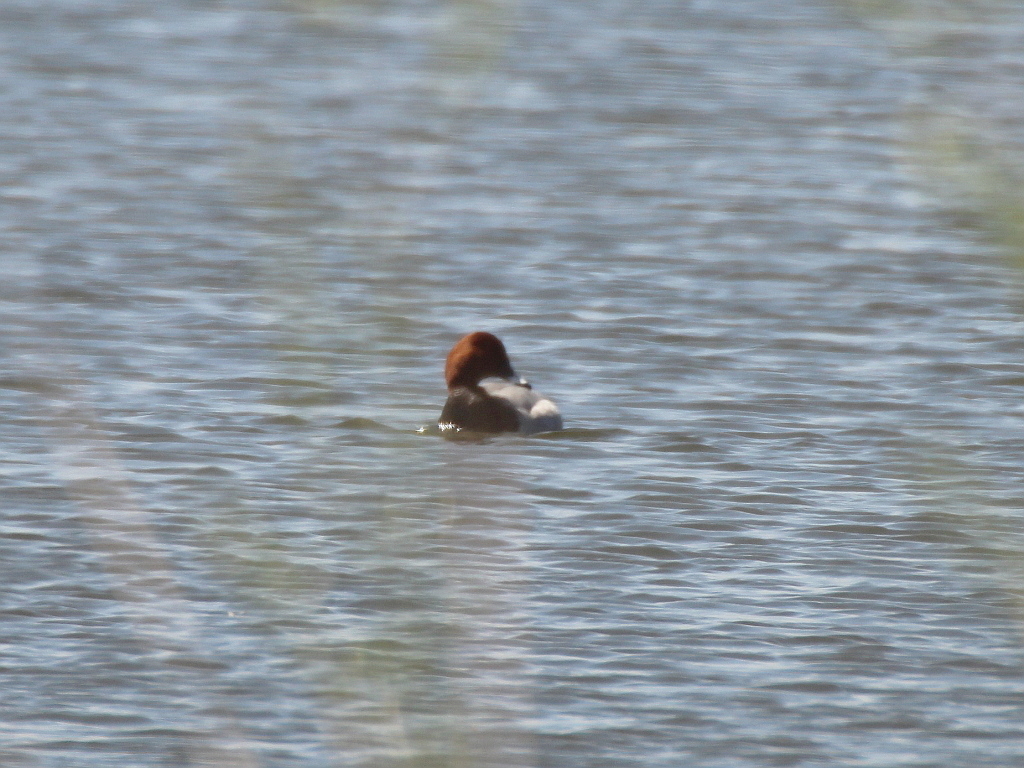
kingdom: Animalia
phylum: Chordata
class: Aves
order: Anseriformes
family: Anatidae
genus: Aythya
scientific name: Aythya ferina
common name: Common pochard
